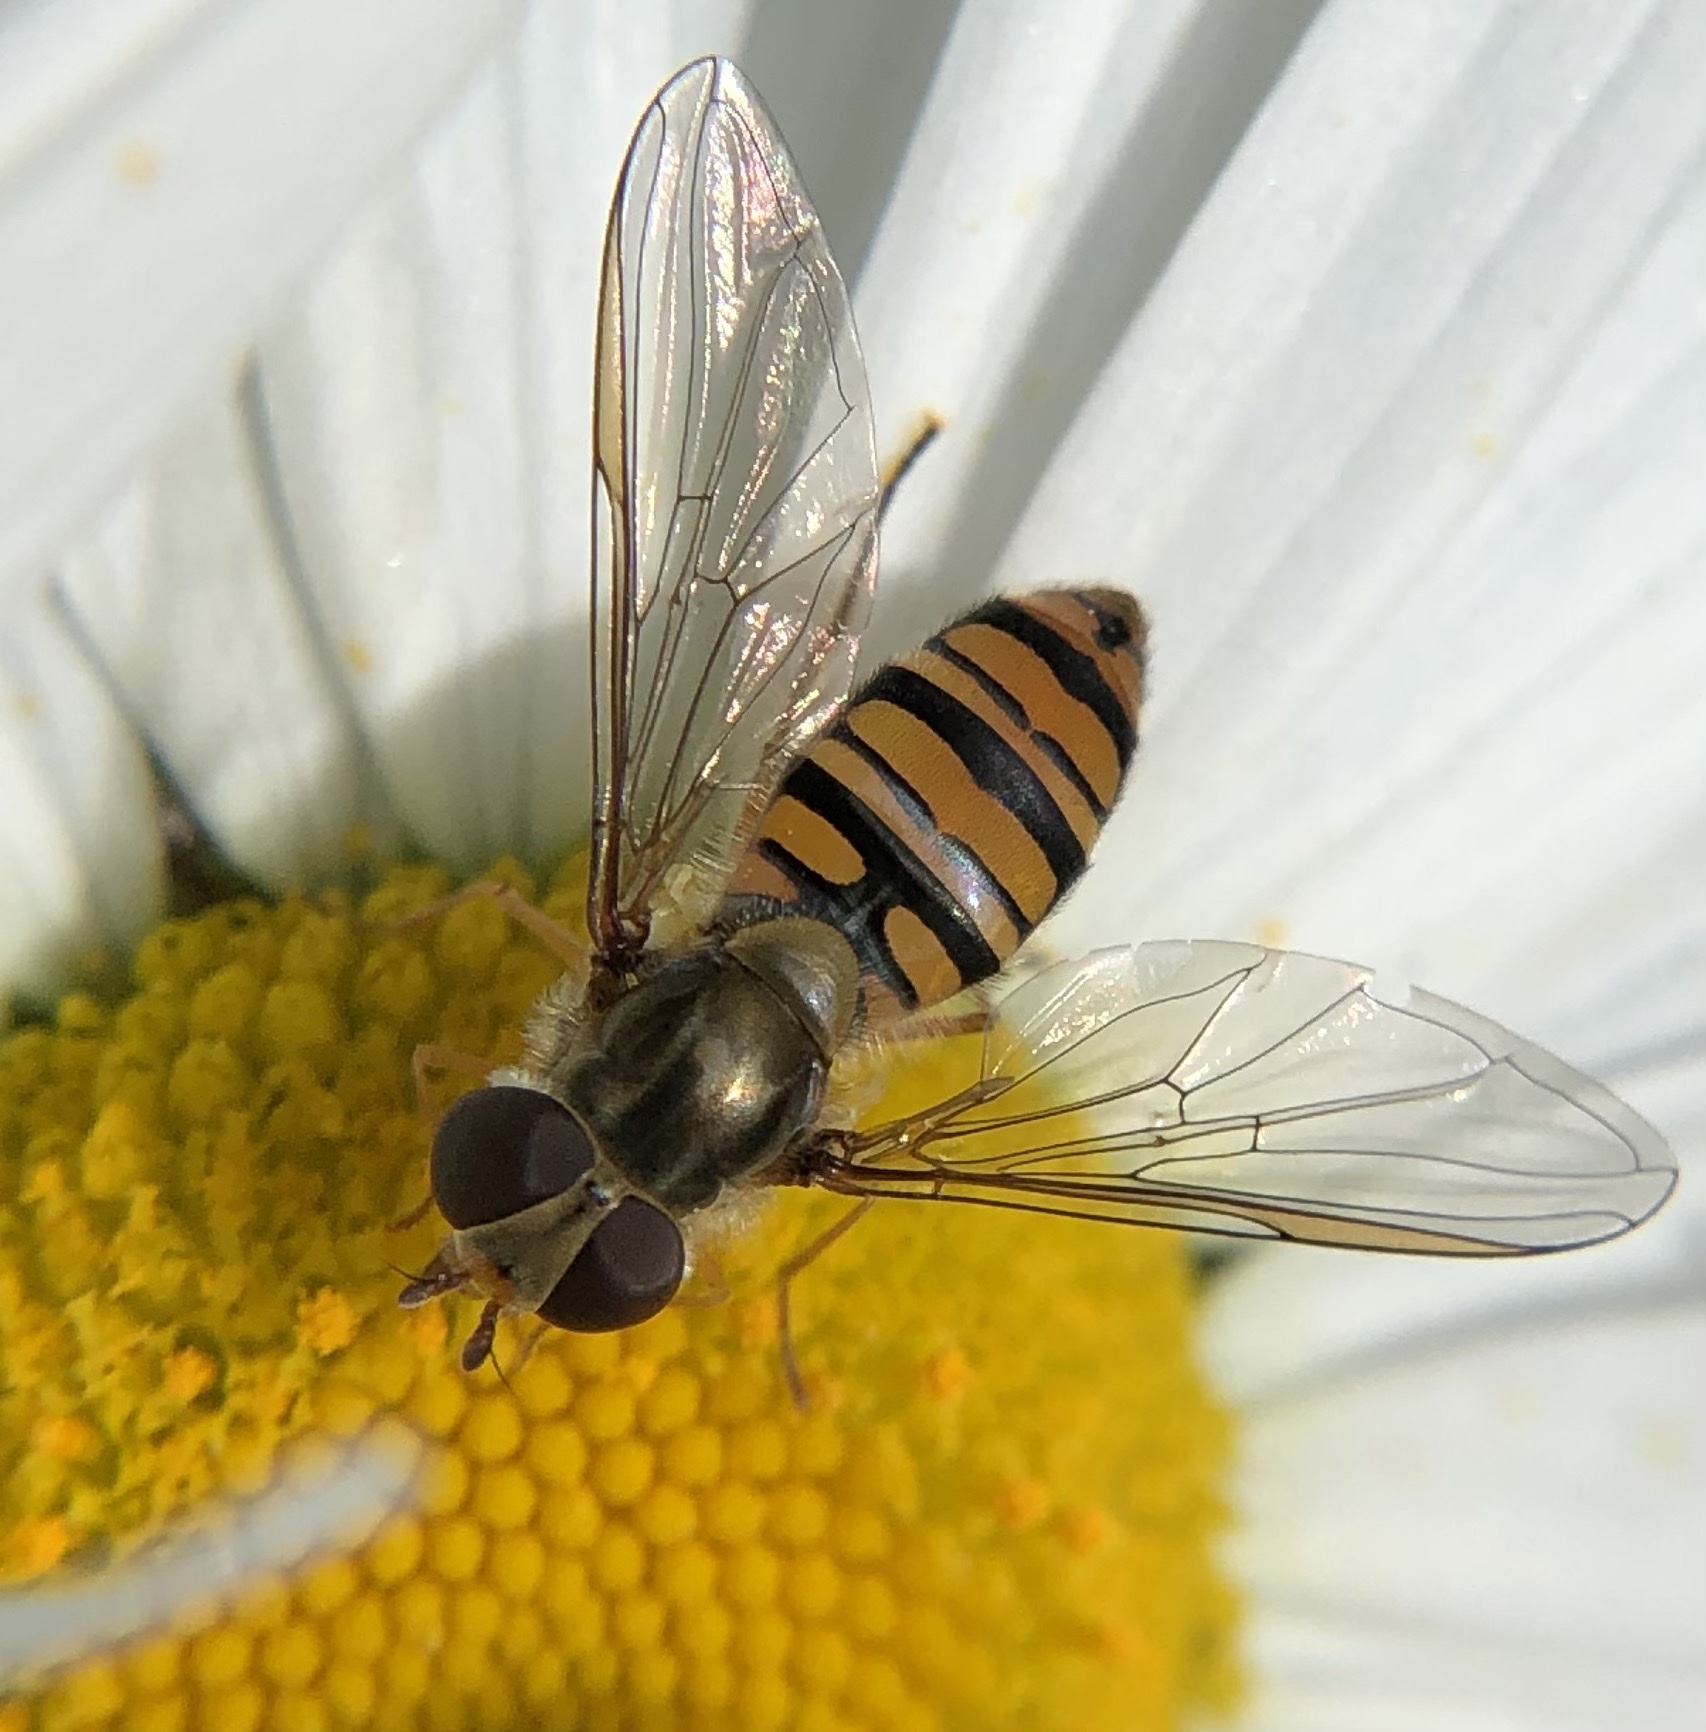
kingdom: Animalia
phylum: Arthropoda
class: Insecta
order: Diptera
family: Syrphidae
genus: Episyrphus
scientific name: Episyrphus balteatus
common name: Marmalade hoverfly
